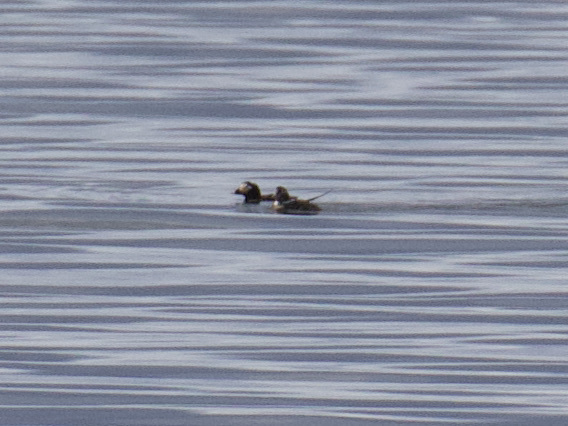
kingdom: Animalia
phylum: Chordata
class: Aves
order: Anseriformes
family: Anatidae
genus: Clangula
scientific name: Clangula hyemalis
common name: Long-tailed duck
